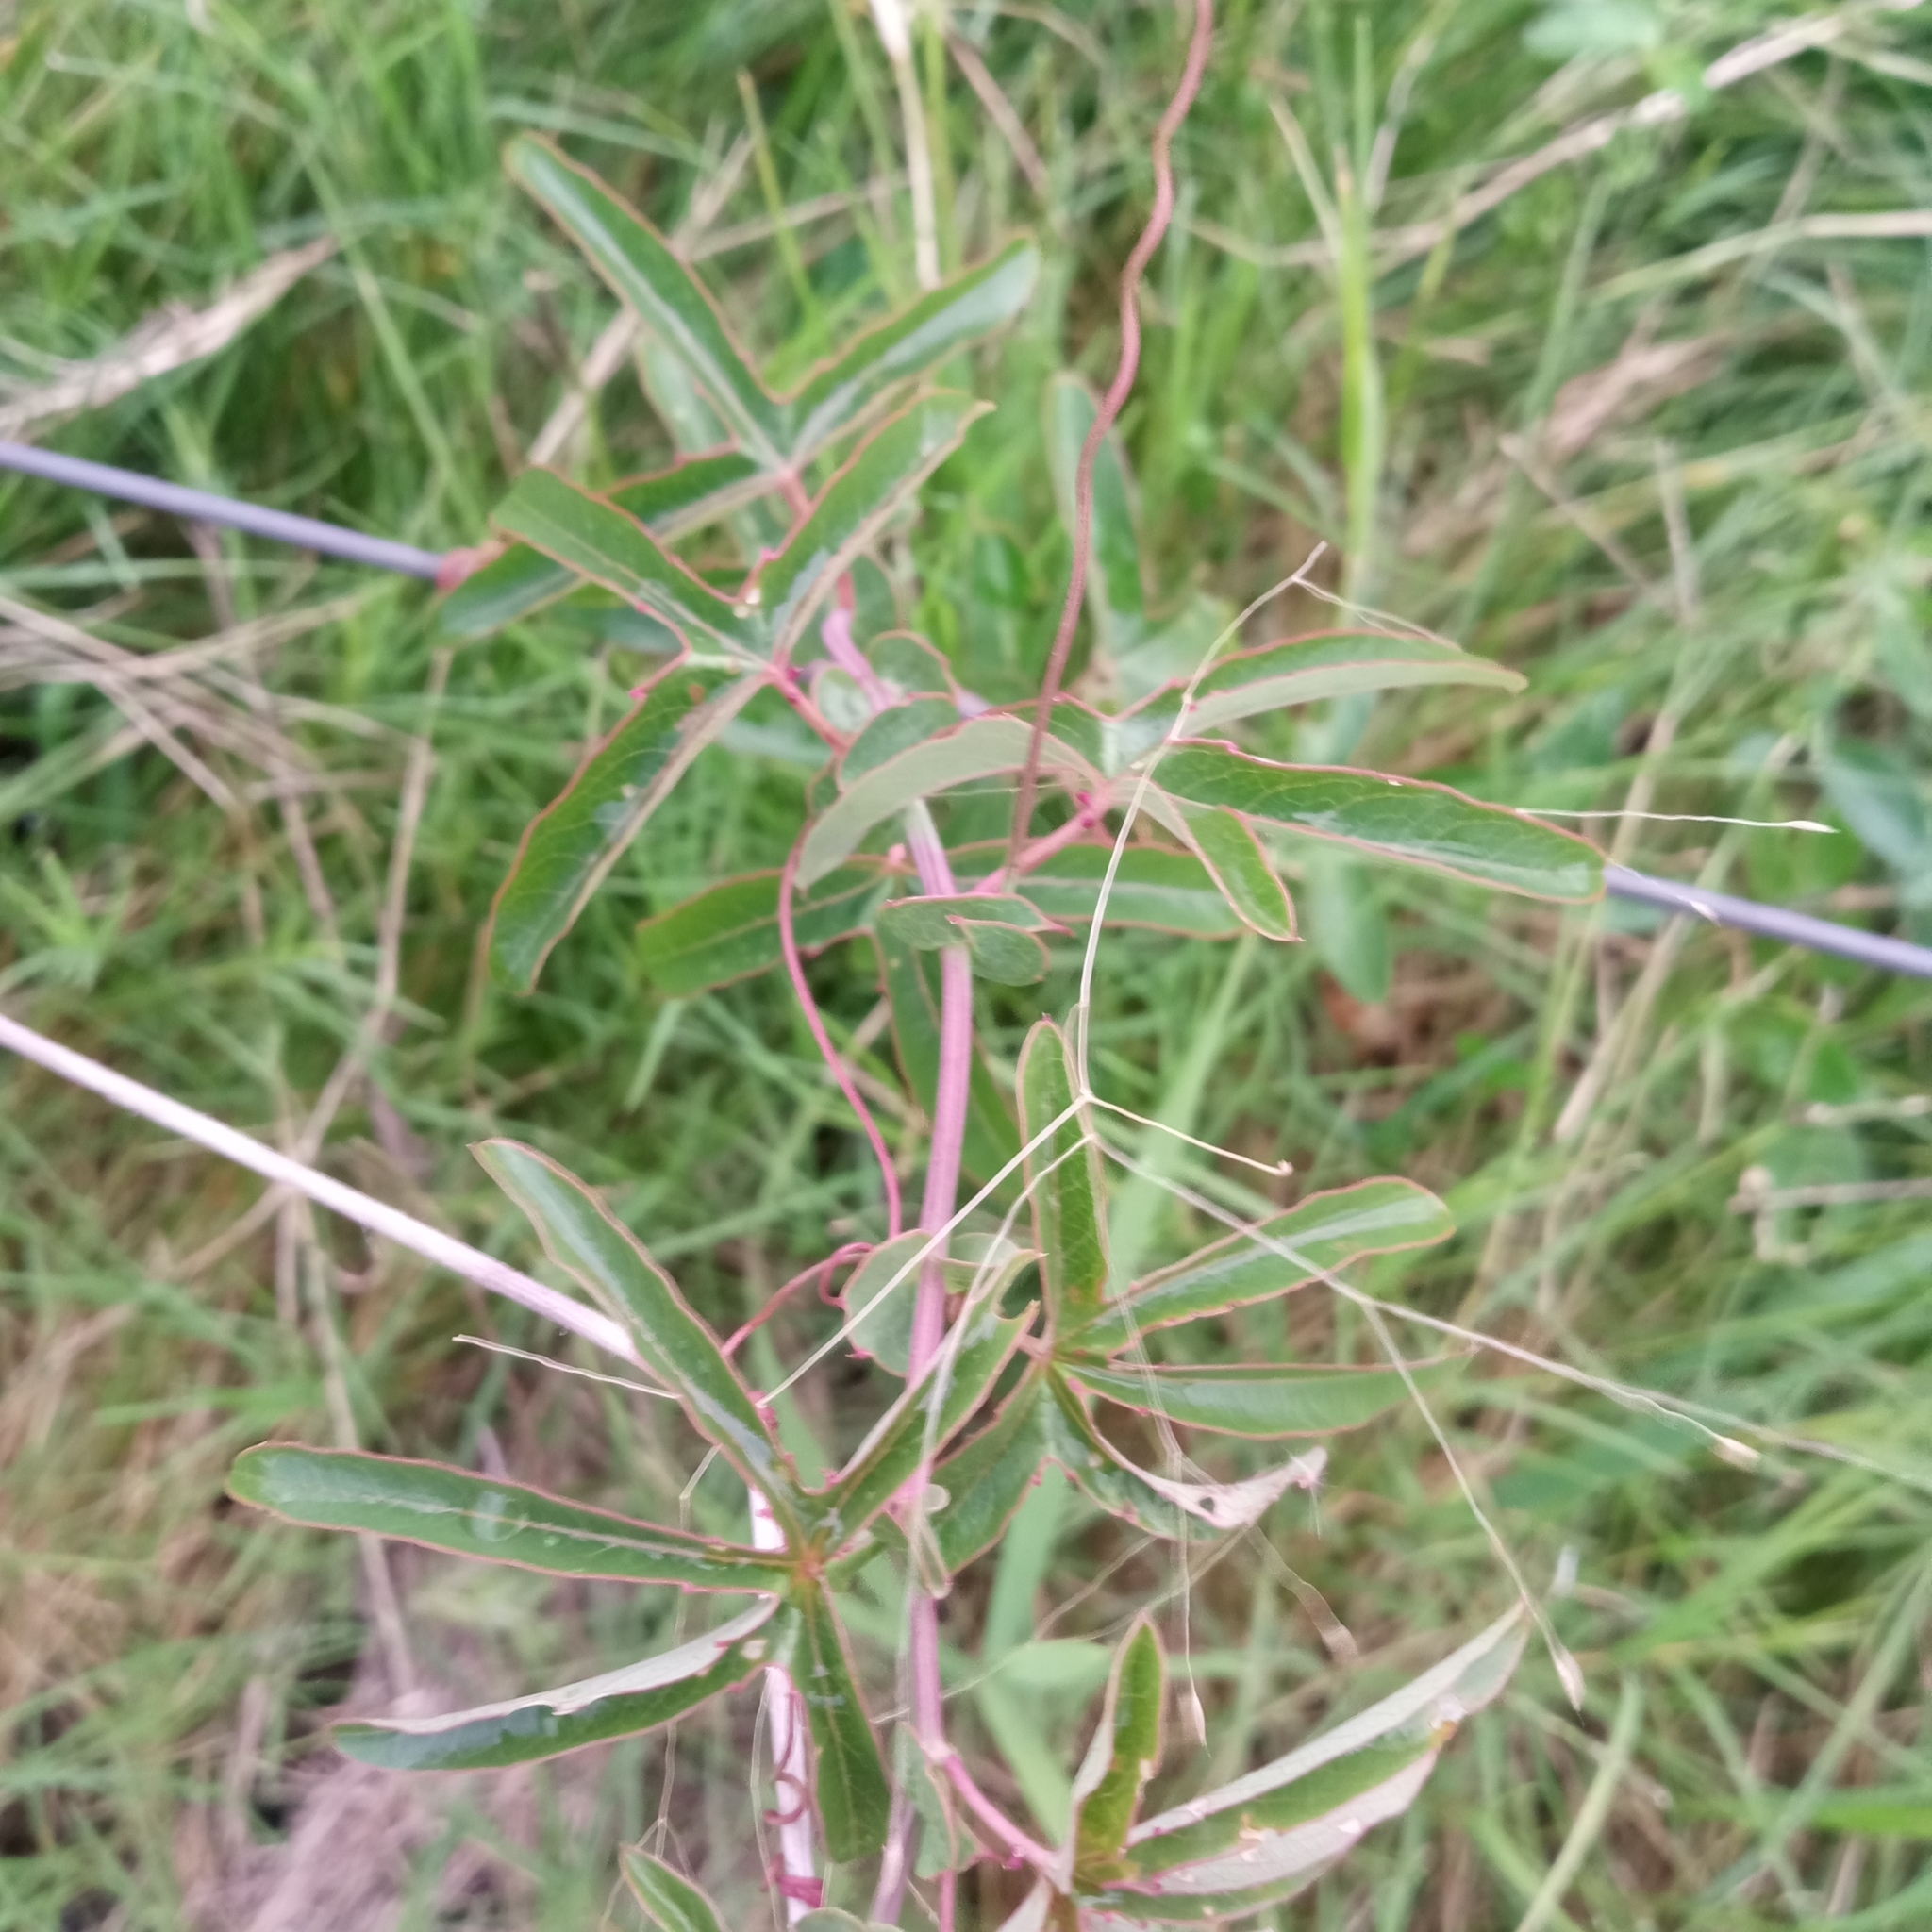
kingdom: Plantae
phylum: Tracheophyta
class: Magnoliopsida
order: Malpighiales
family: Passifloraceae
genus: Passiflora
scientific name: Passiflora caerulea
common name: Blue passionflower
